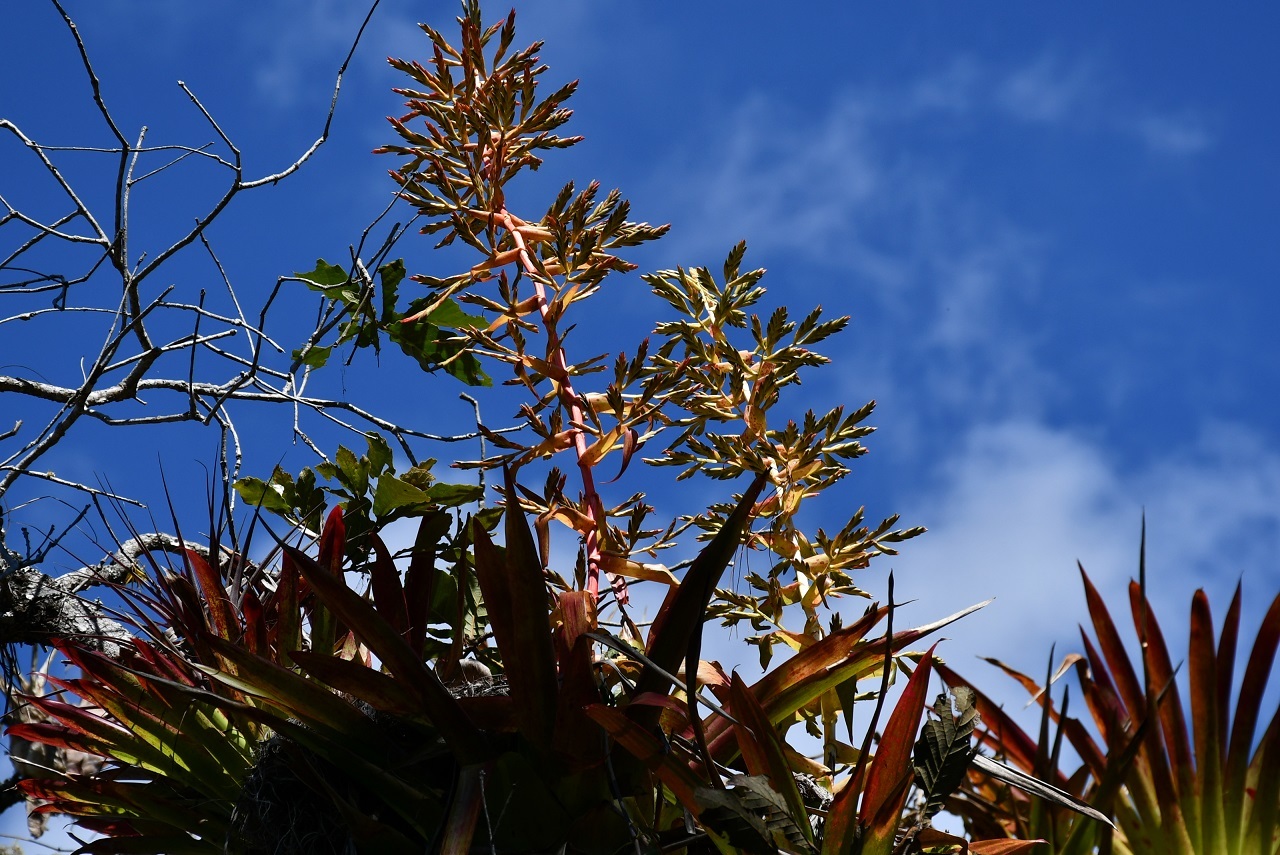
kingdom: Plantae
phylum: Tracheophyta
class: Liliopsida
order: Poales
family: Bromeliaceae
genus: Tillandsia
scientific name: Tillandsia guatemalensis
